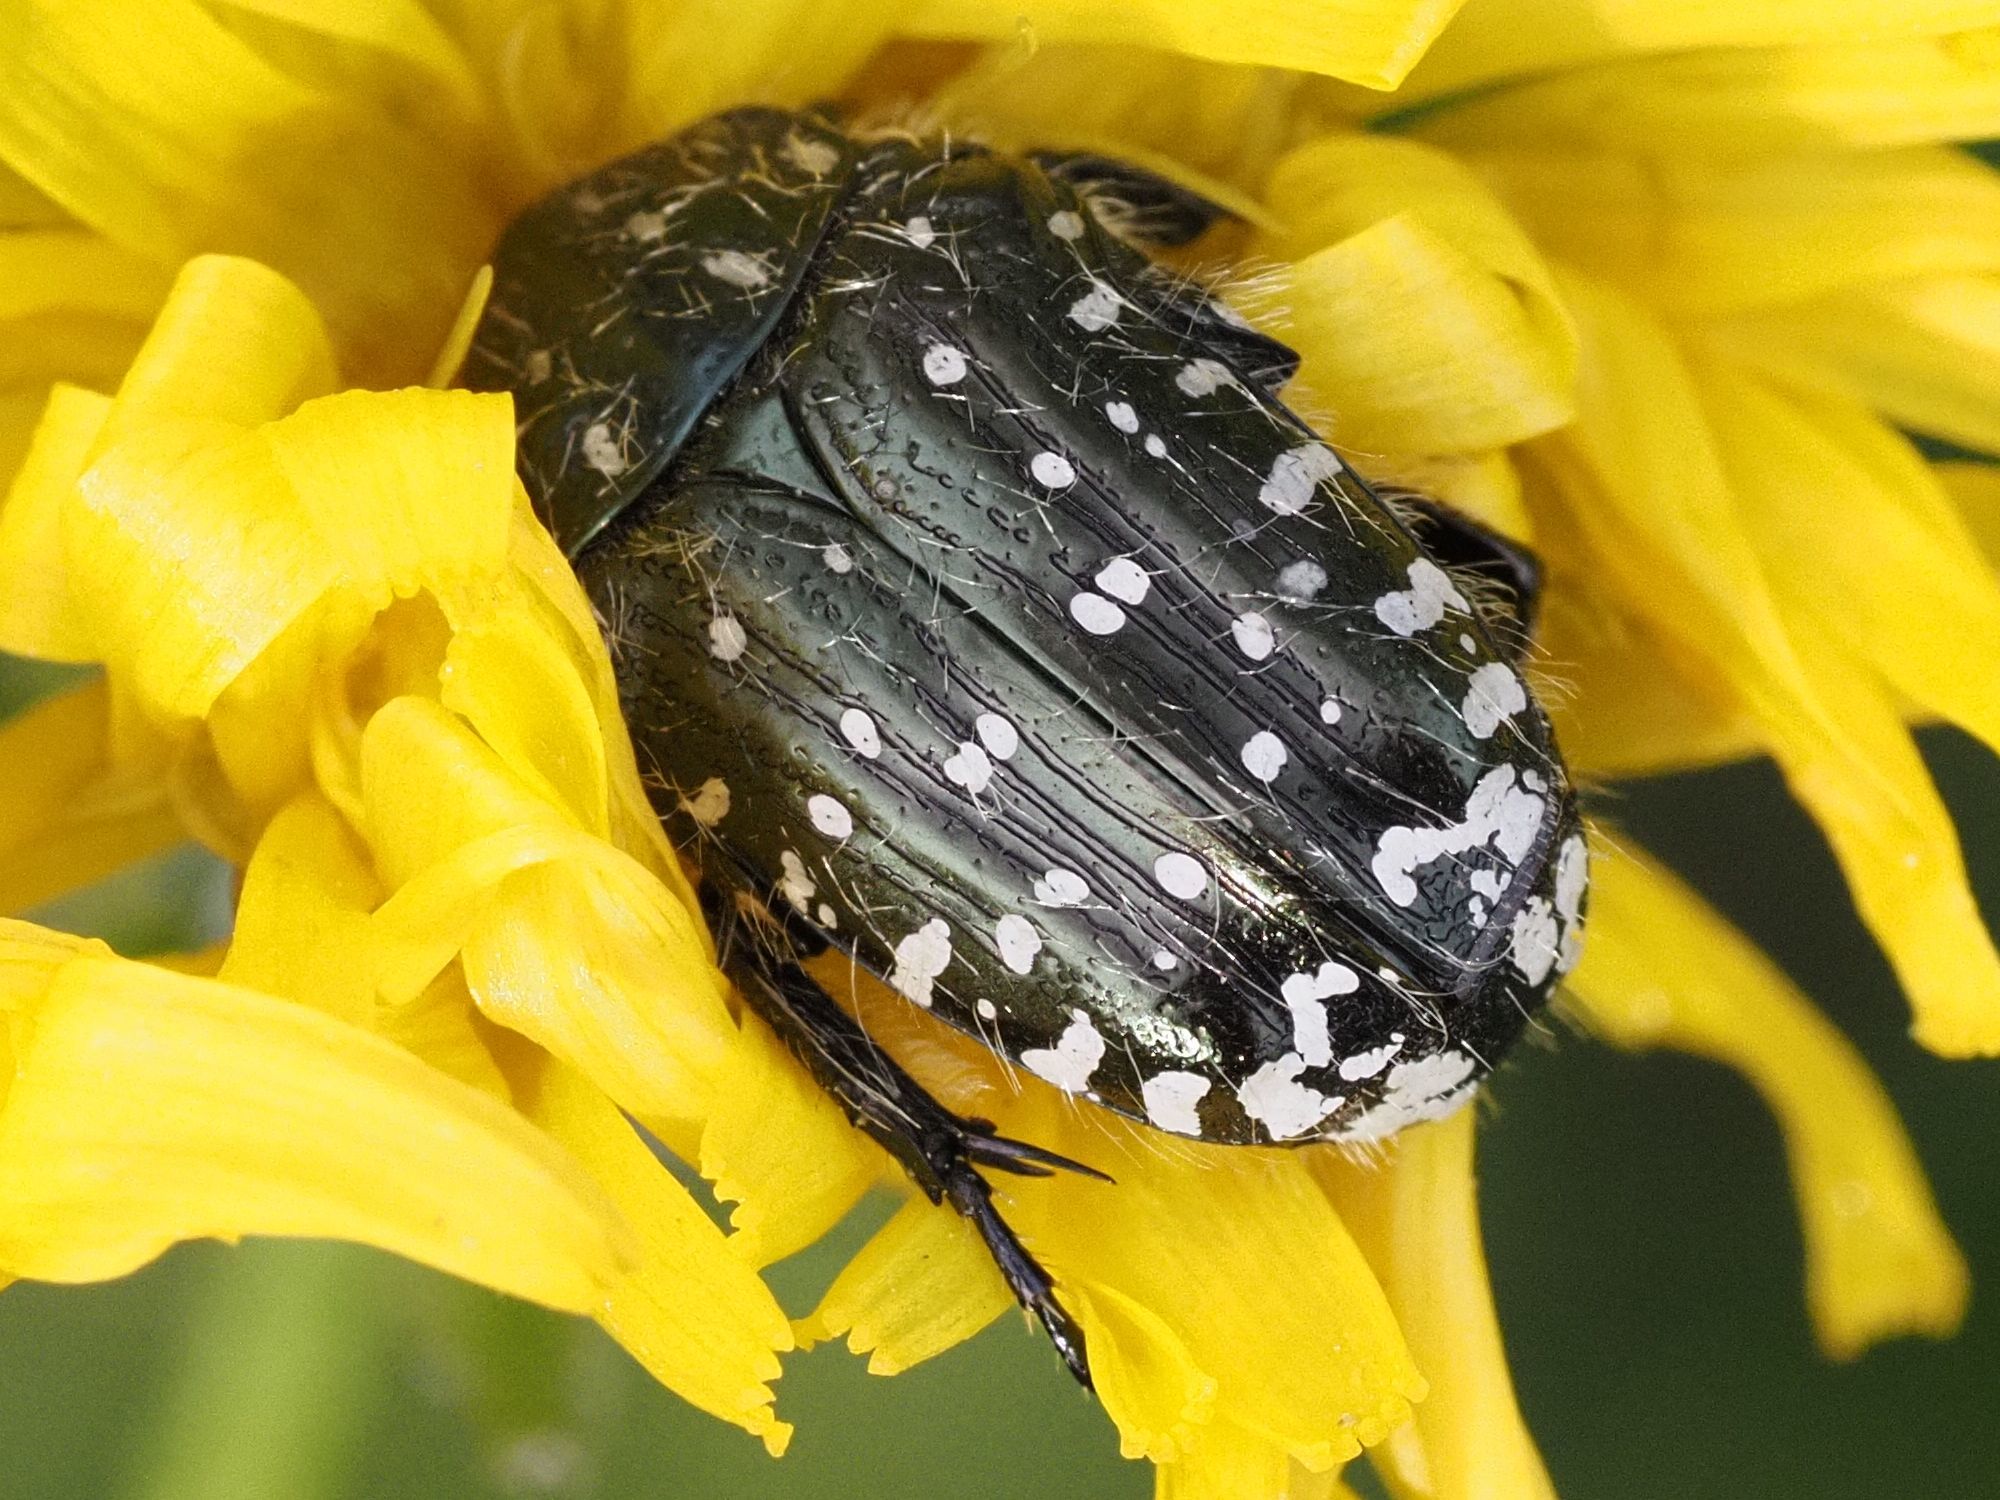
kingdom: Animalia
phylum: Arthropoda
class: Insecta
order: Coleoptera
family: Scarabaeidae
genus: Oxythyrea
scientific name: Oxythyrea funesta
